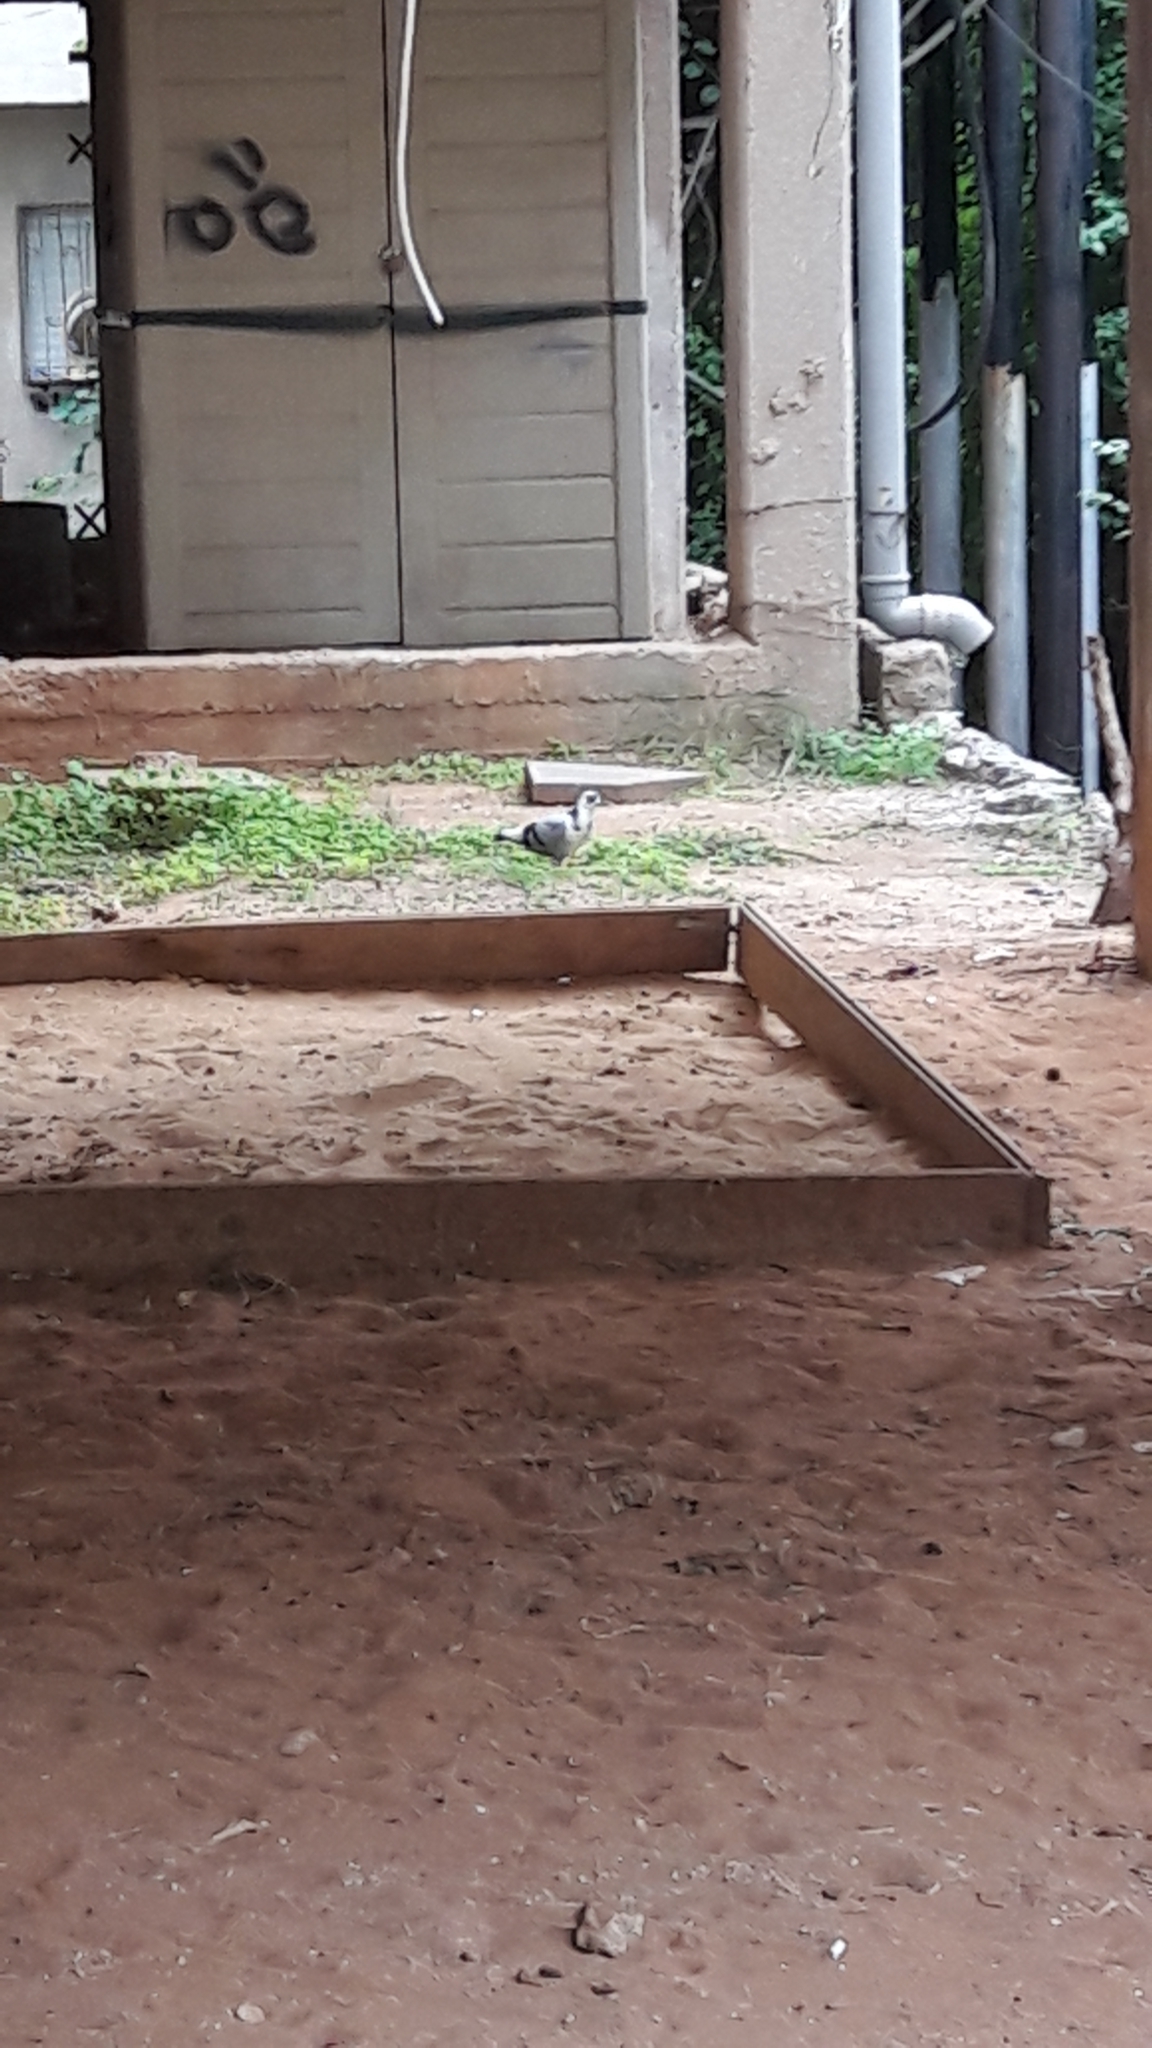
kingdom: Animalia
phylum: Chordata
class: Aves
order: Columbiformes
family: Columbidae
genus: Columba
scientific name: Columba livia
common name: Rock pigeon
